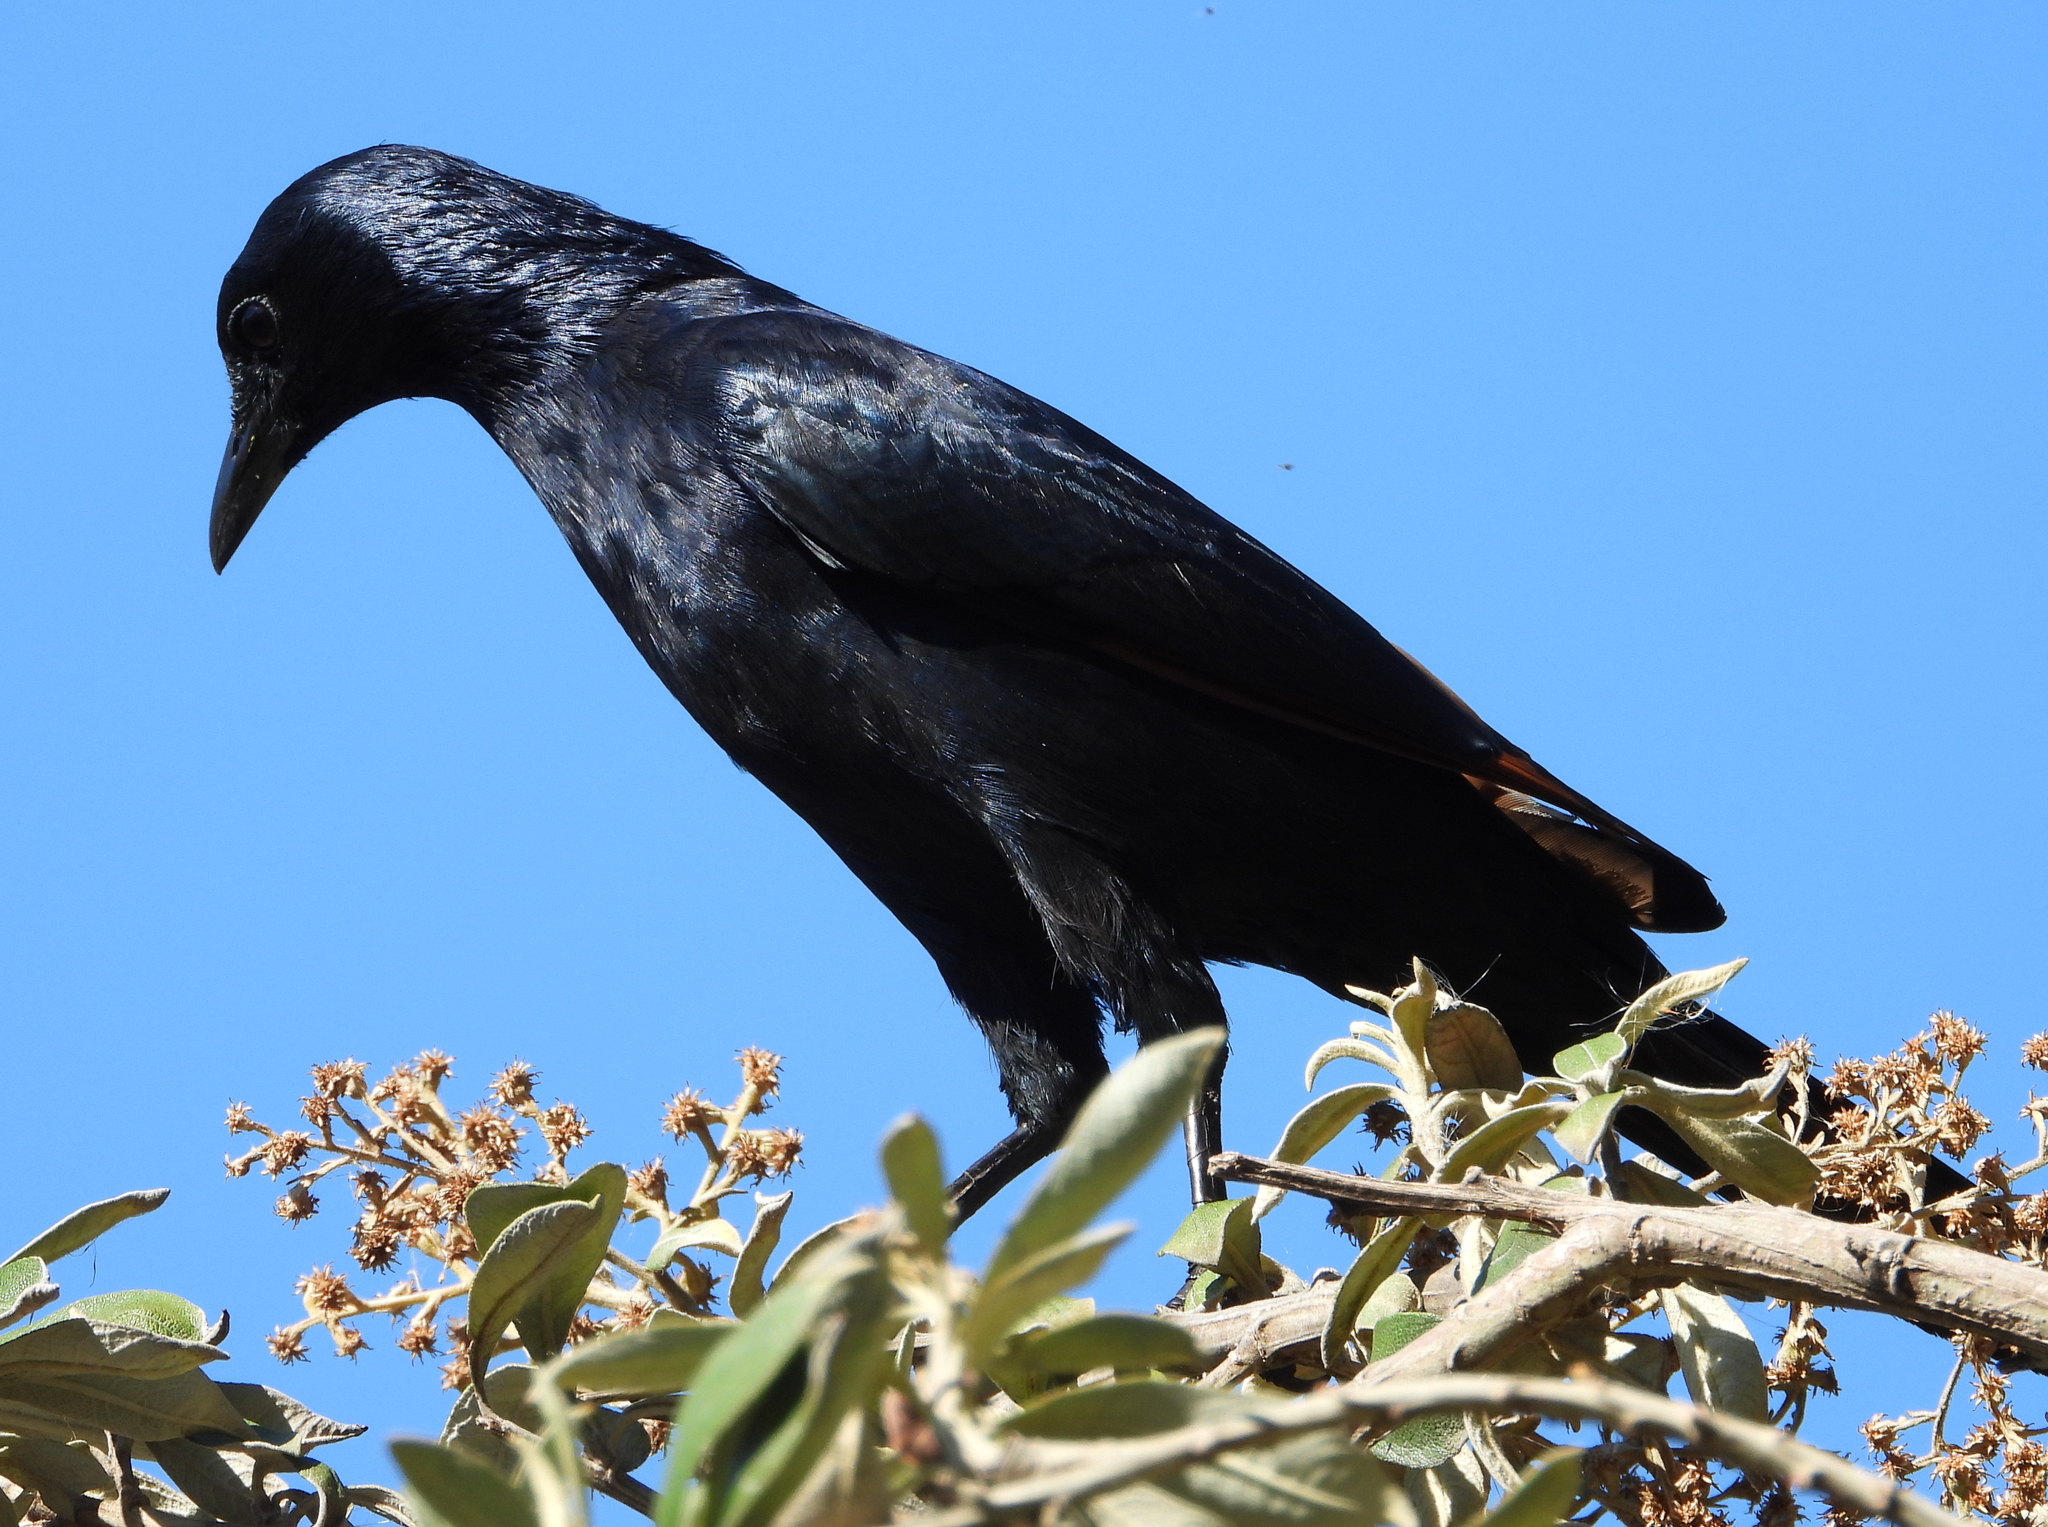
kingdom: Animalia
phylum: Chordata
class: Aves
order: Passeriformes
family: Sturnidae
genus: Onychognathus
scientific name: Onychognathus morio
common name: Red-winged starling
